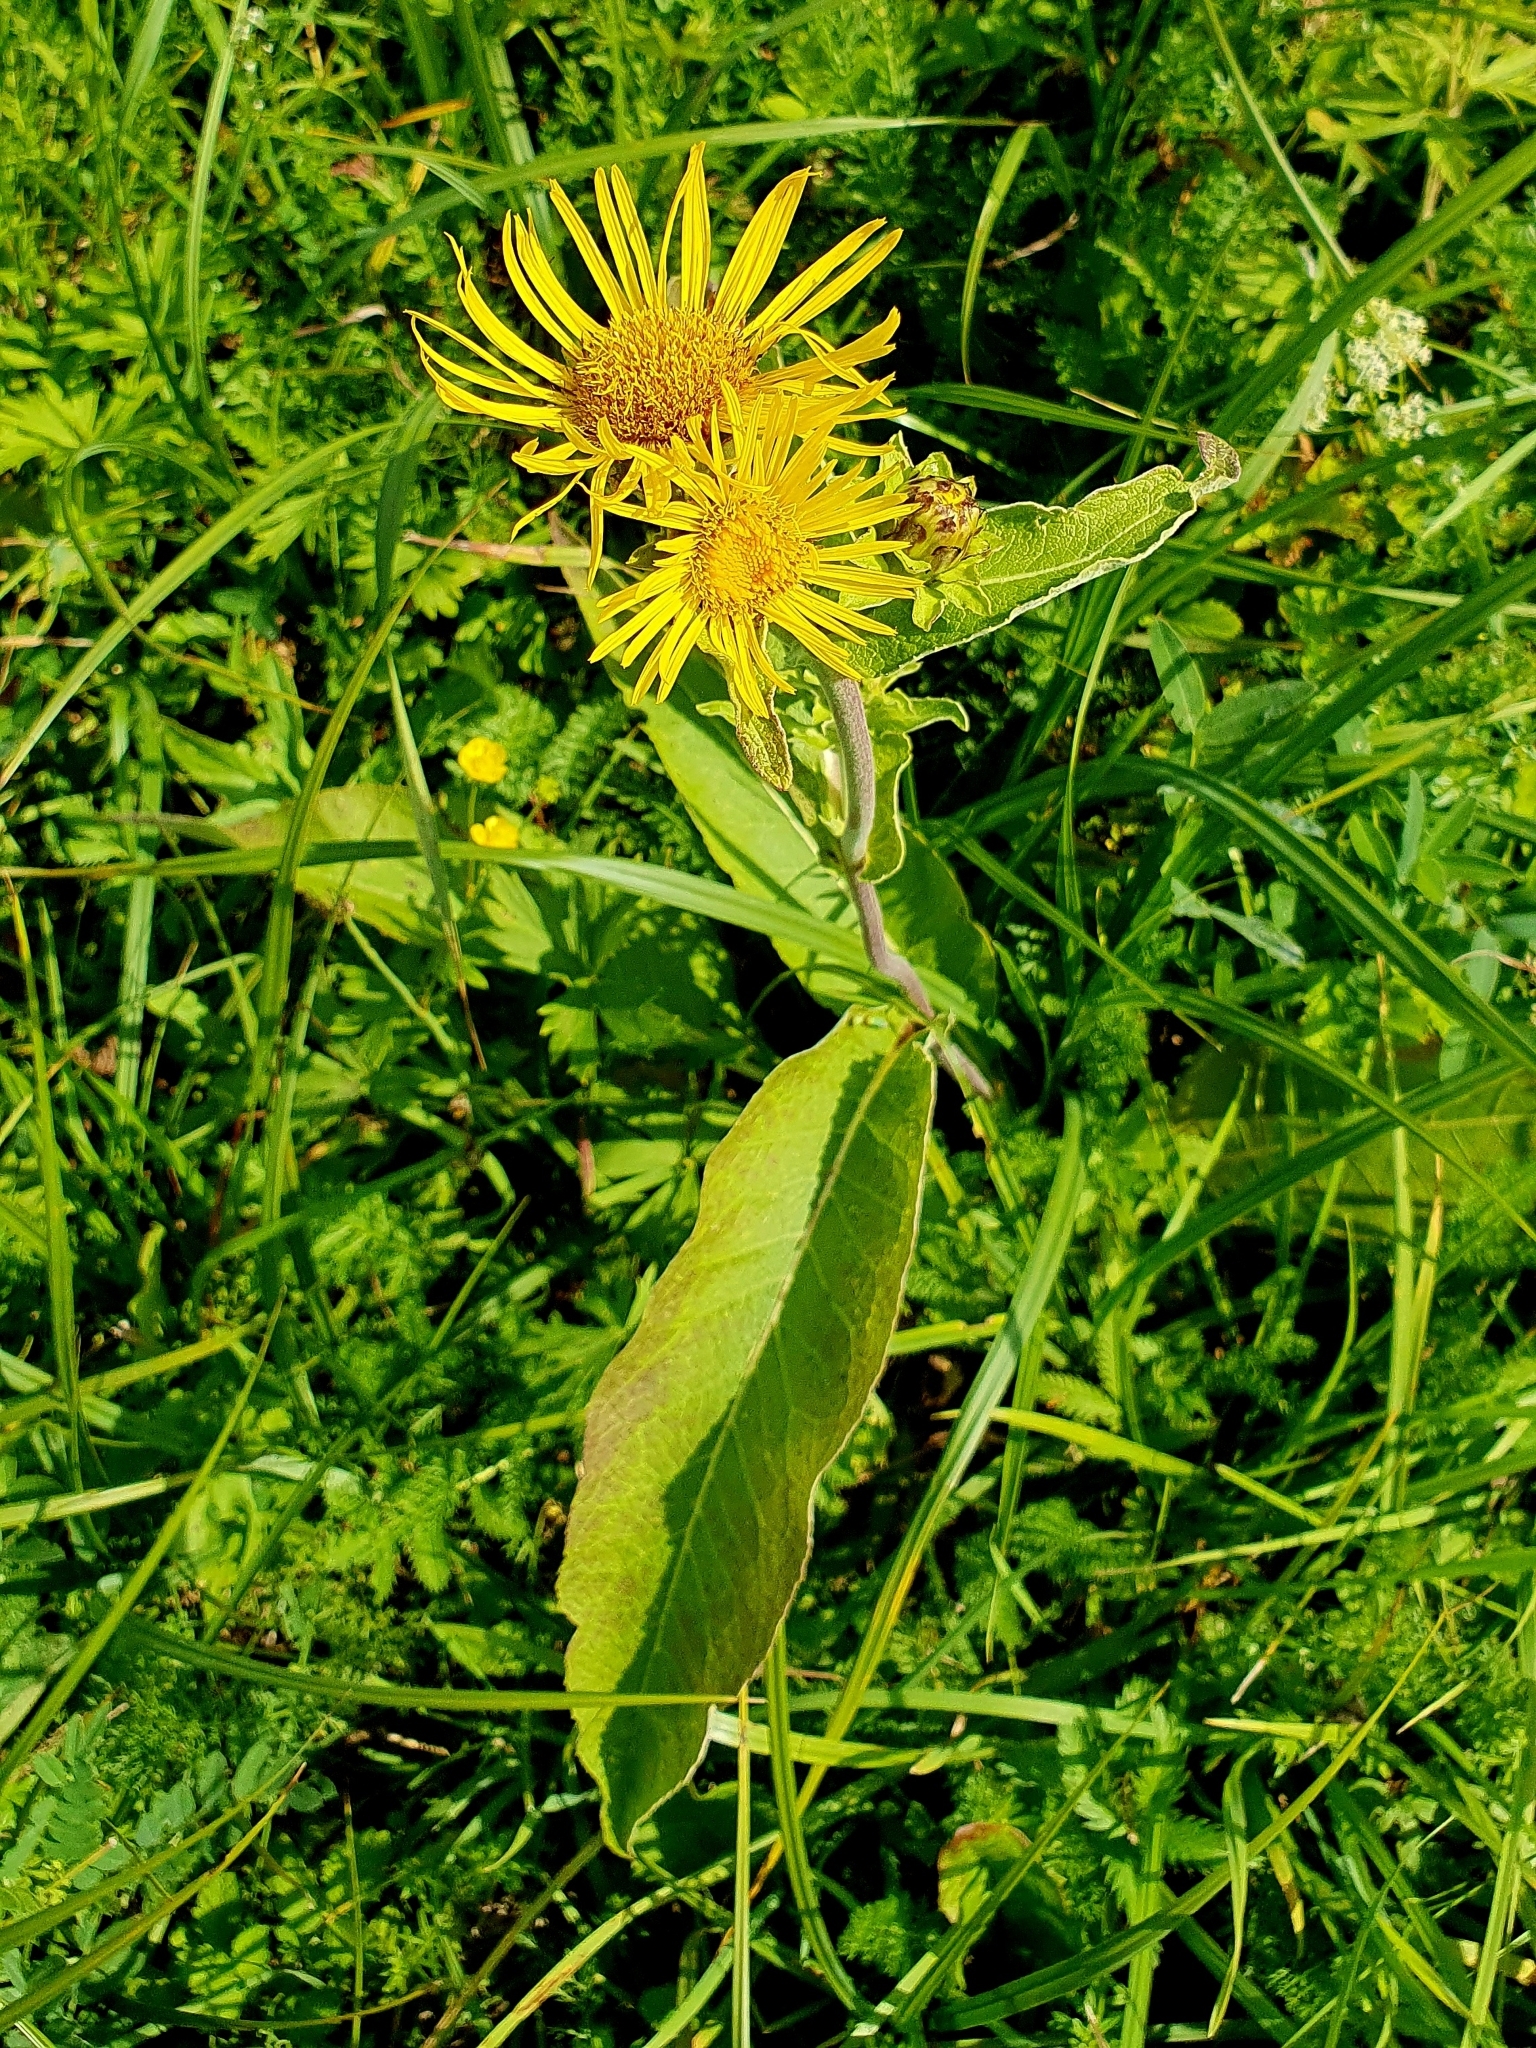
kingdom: Plantae
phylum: Tracheophyta
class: Magnoliopsida
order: Asterales
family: Asteraceae
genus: Inula
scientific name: Inula helenium
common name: Elecampane
